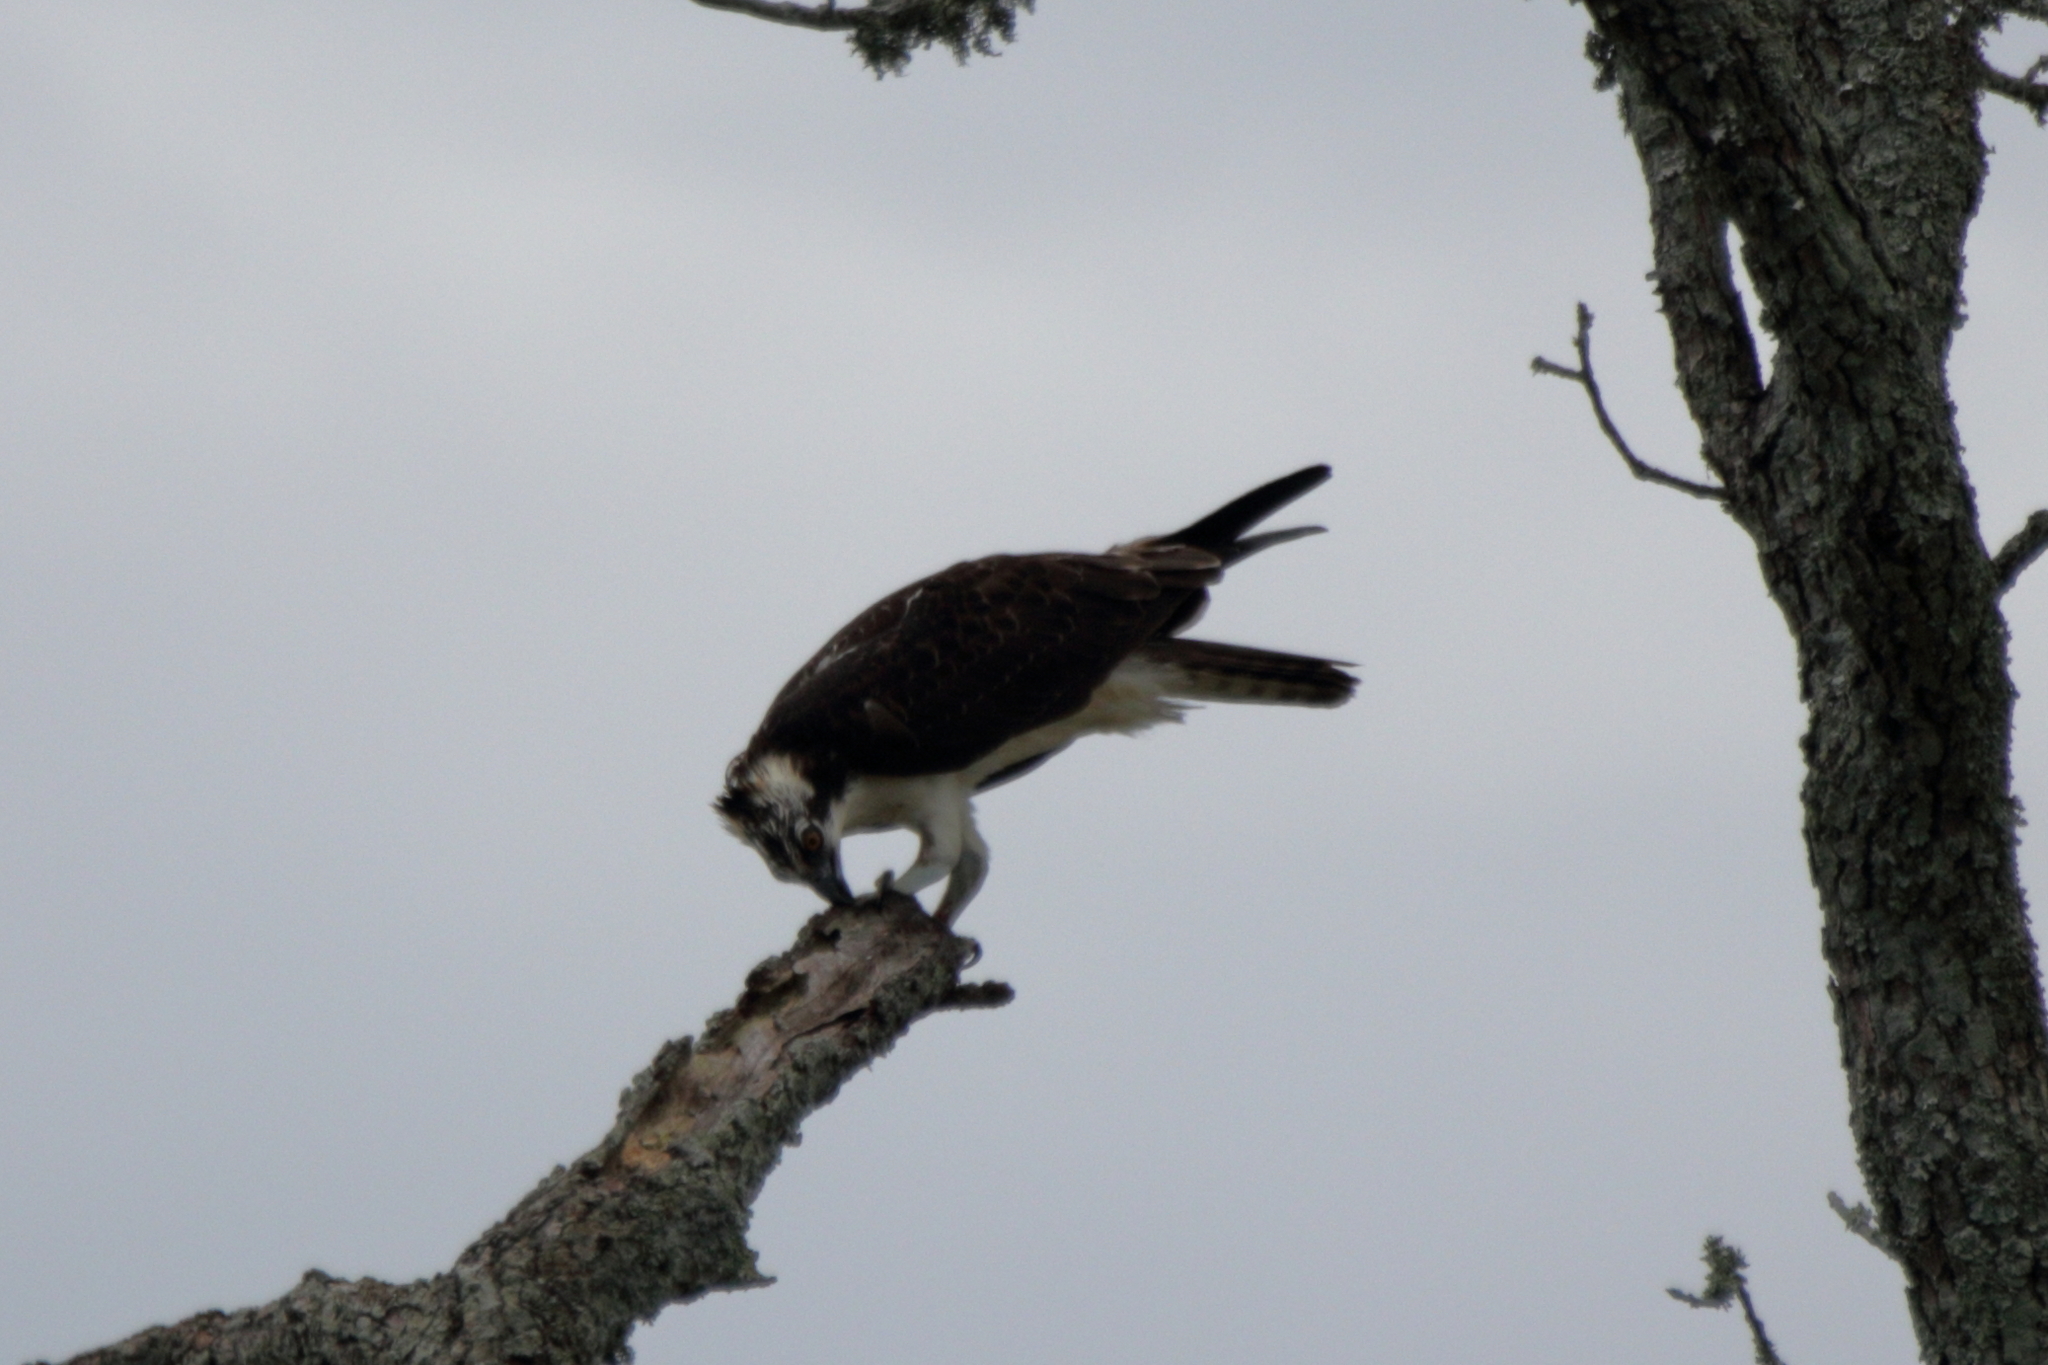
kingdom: Animalia
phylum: Chordata
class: Aves
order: Accipitriformes
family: Pandionidae
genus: Pandion
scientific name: Pandion haliaetus
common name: Osprey
